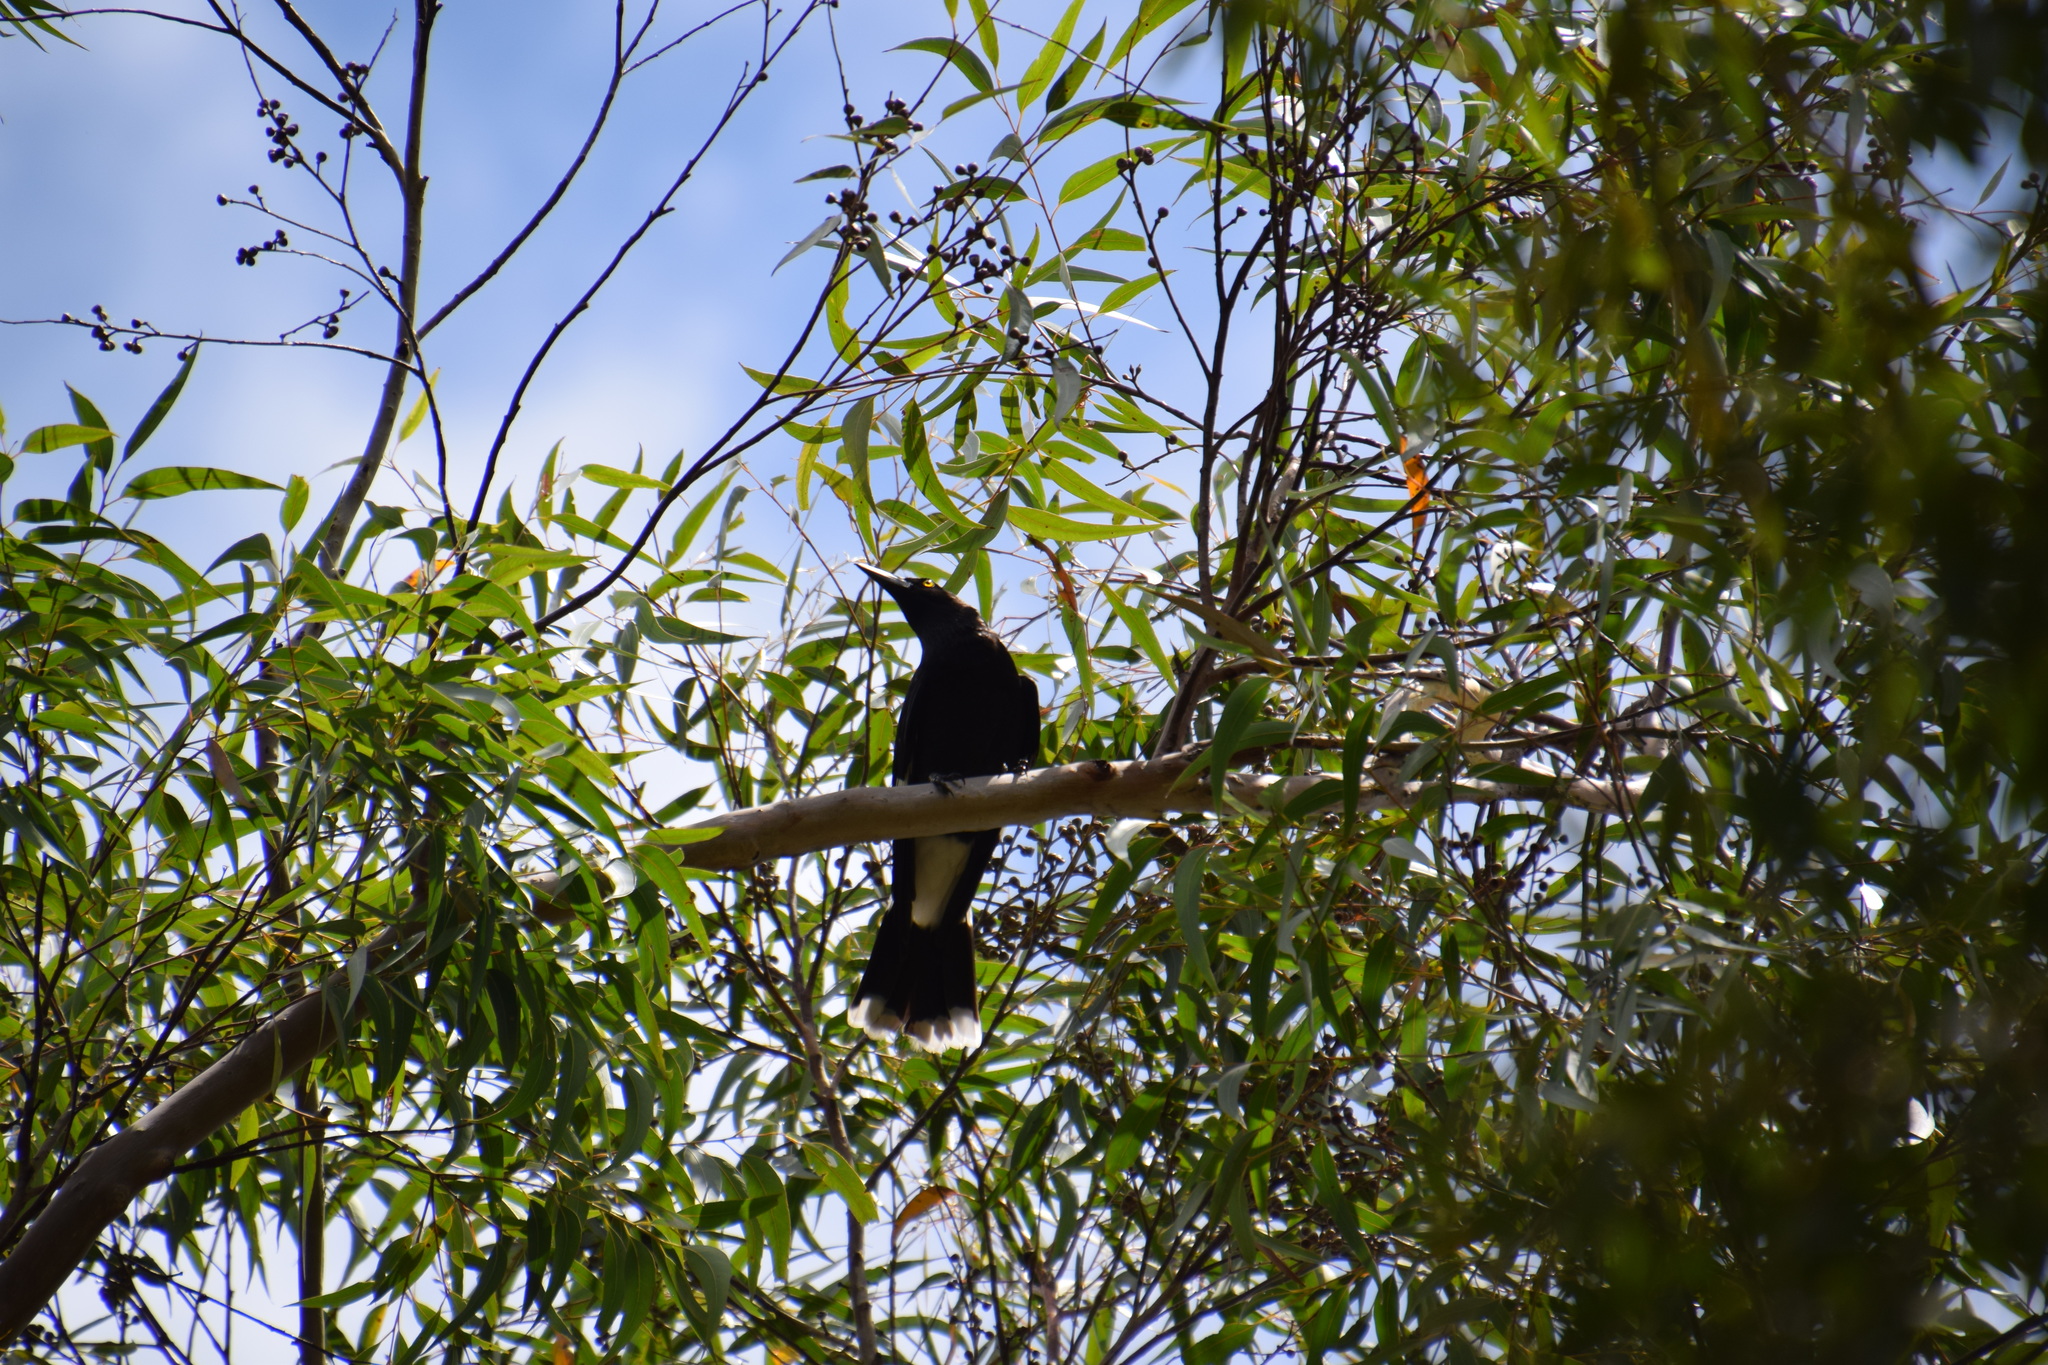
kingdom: Animalia
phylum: Chordata
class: Aves
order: Passeriformes
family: Cracticidae
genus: Strepera
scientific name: Strepera graculina
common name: Pied currawong
